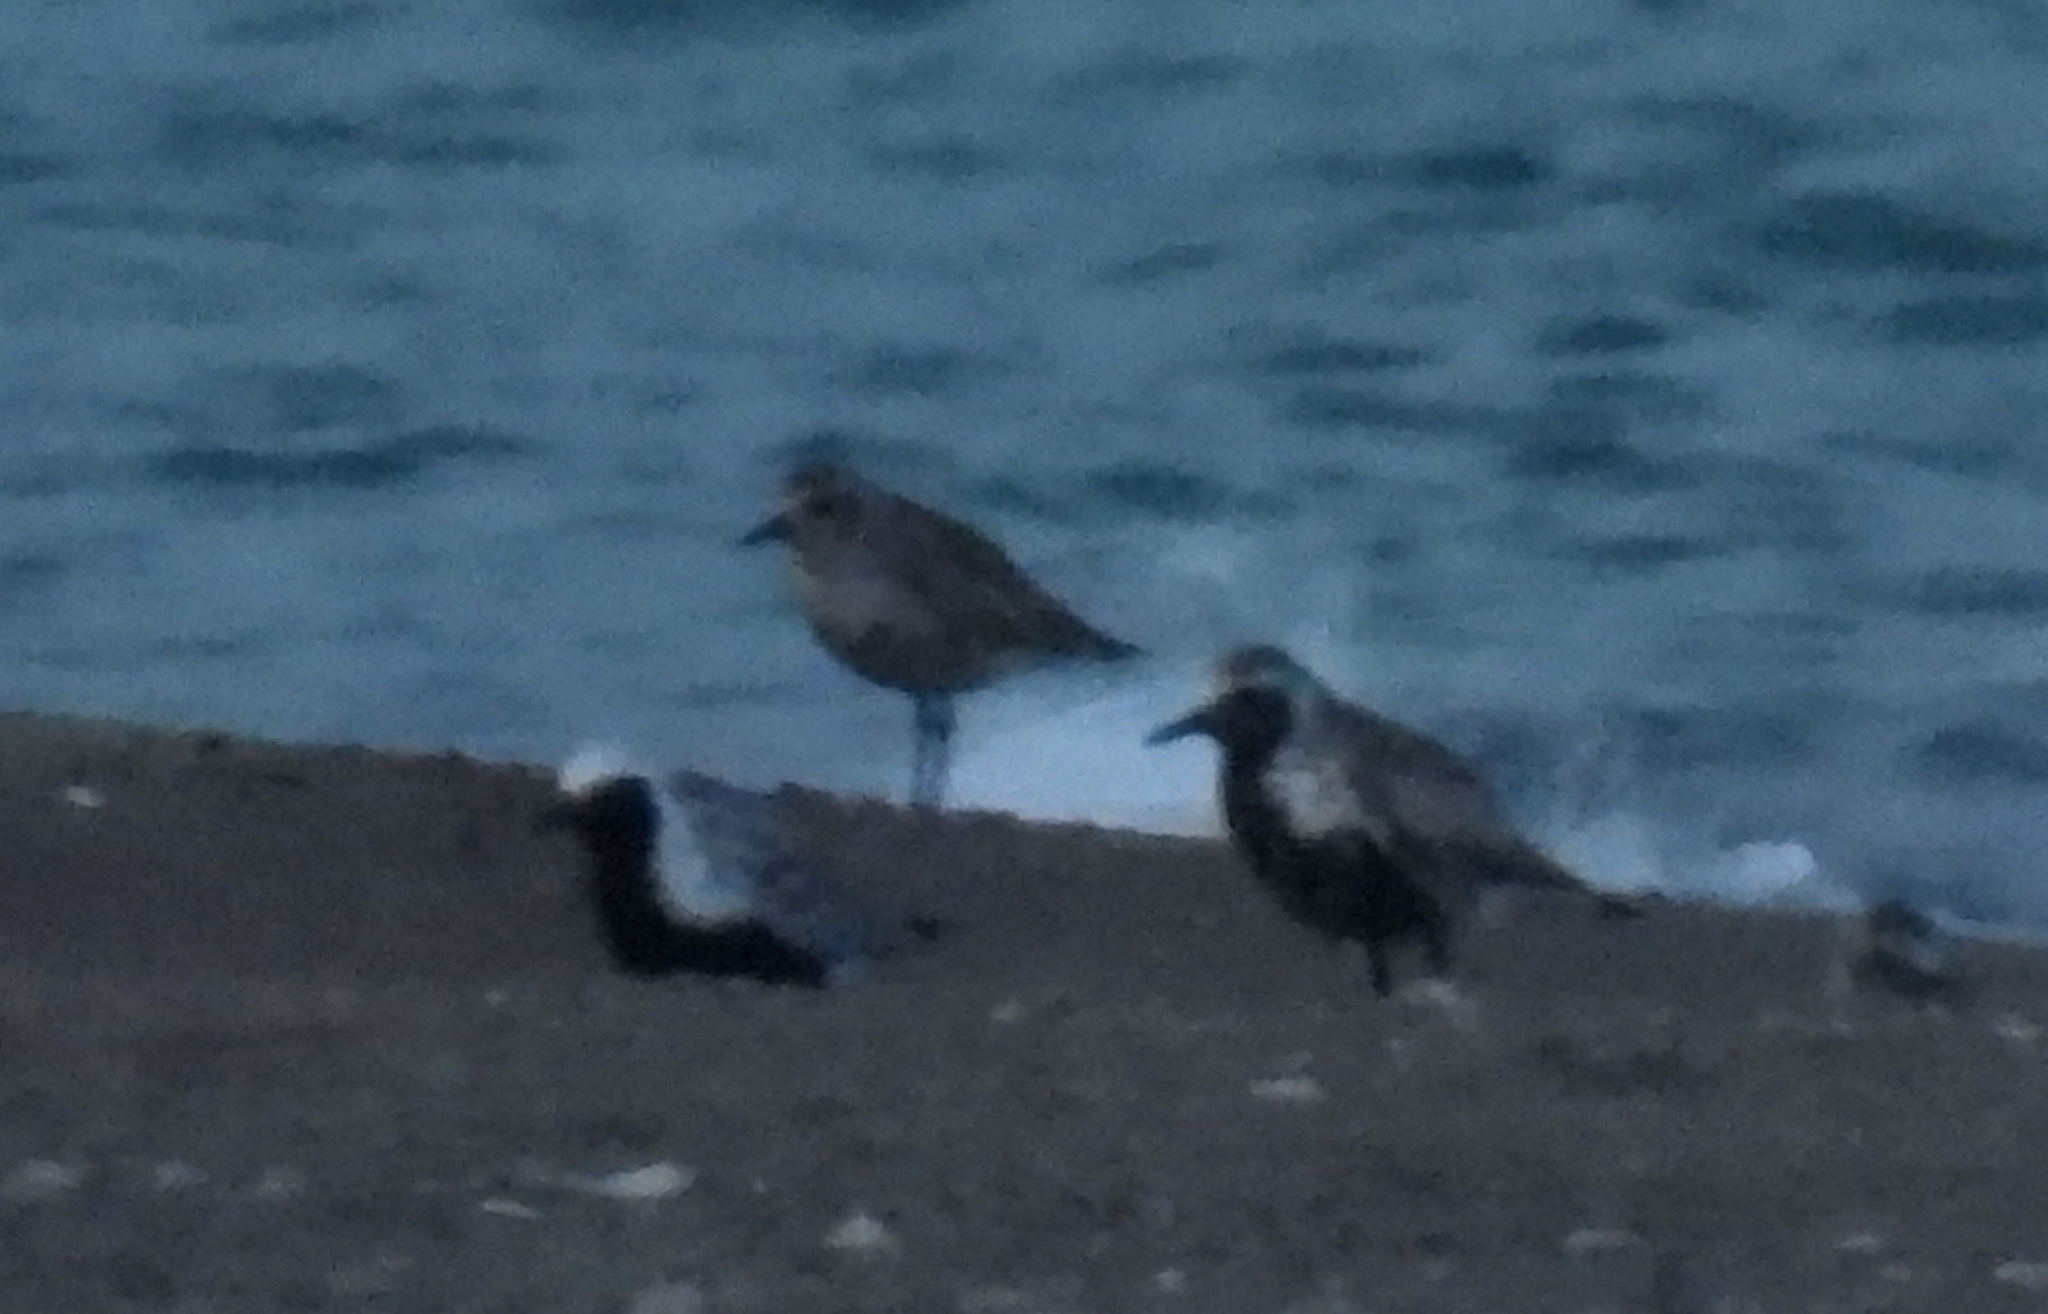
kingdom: Animalia
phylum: Chordata
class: Aves
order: Charadriiformes
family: Charadriidae
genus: Pluvialis
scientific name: Pluvialis squatarola
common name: Grey plover
